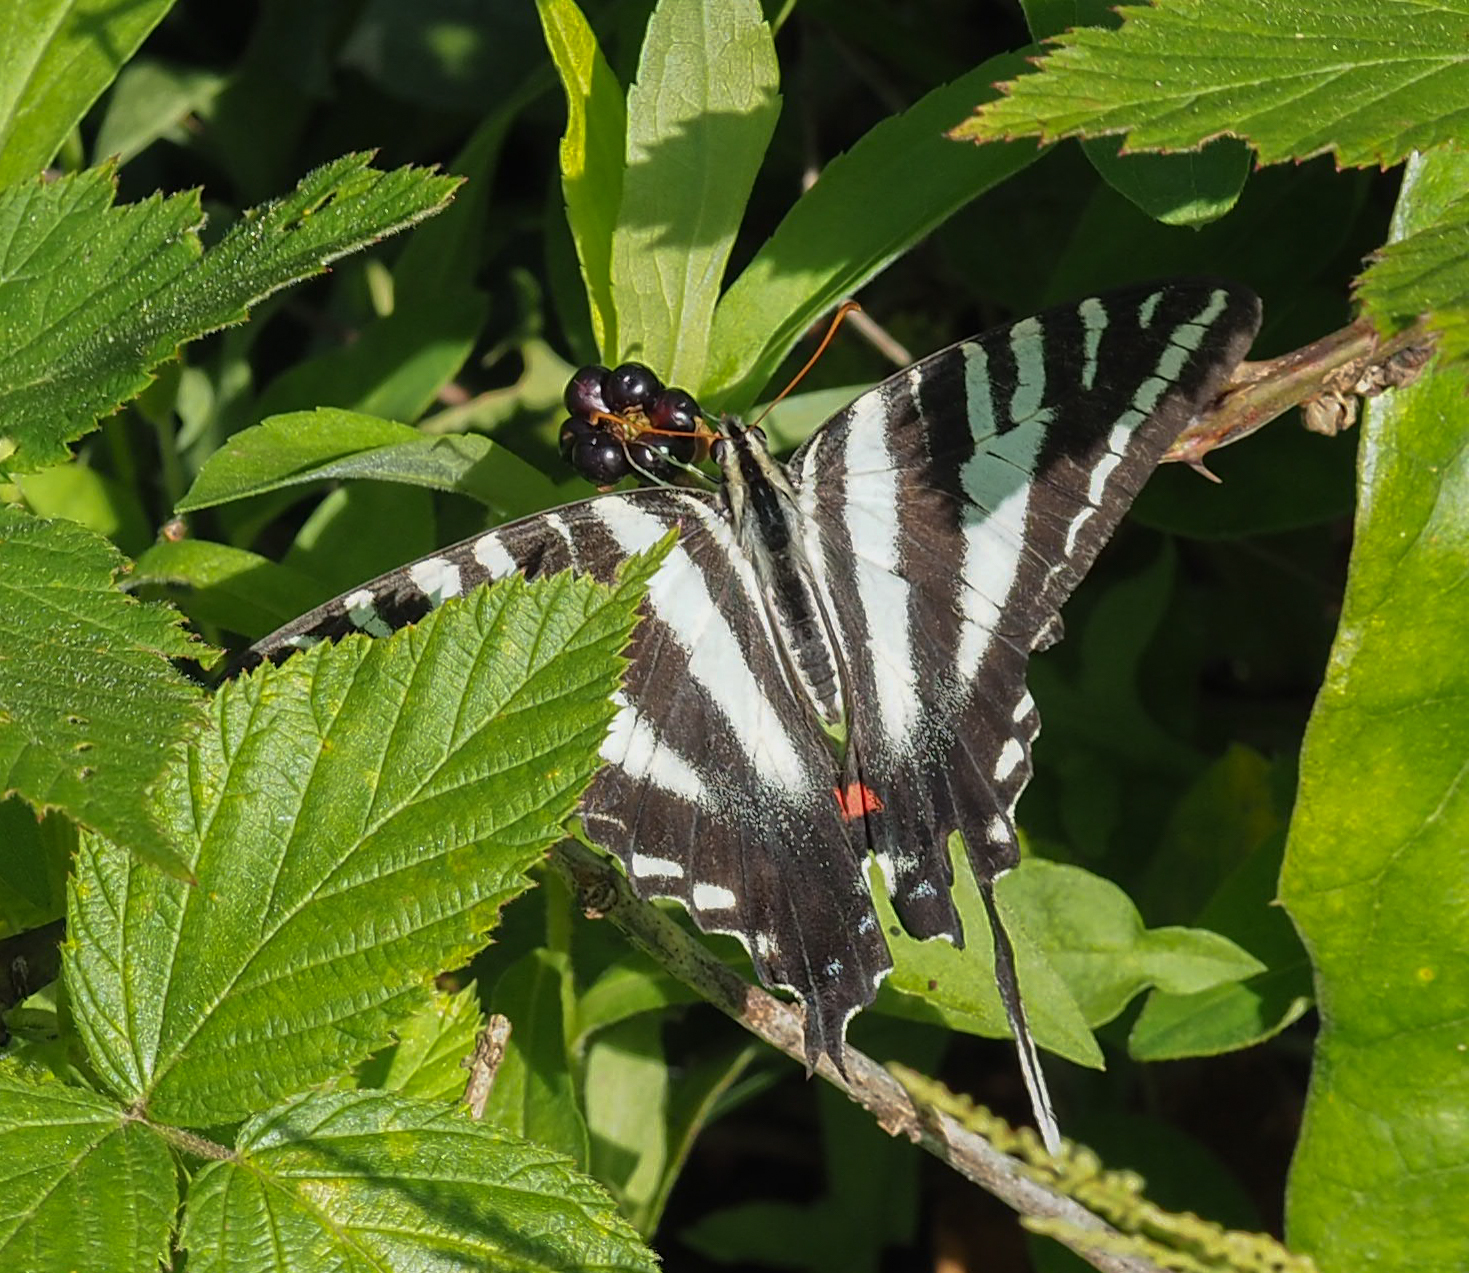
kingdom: Animalia
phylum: Arthropoda
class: Insecta
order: Lepidoptera
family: Papilionidae
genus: Protographium
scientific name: Protographium marcellus
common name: Zebra swallowtail
